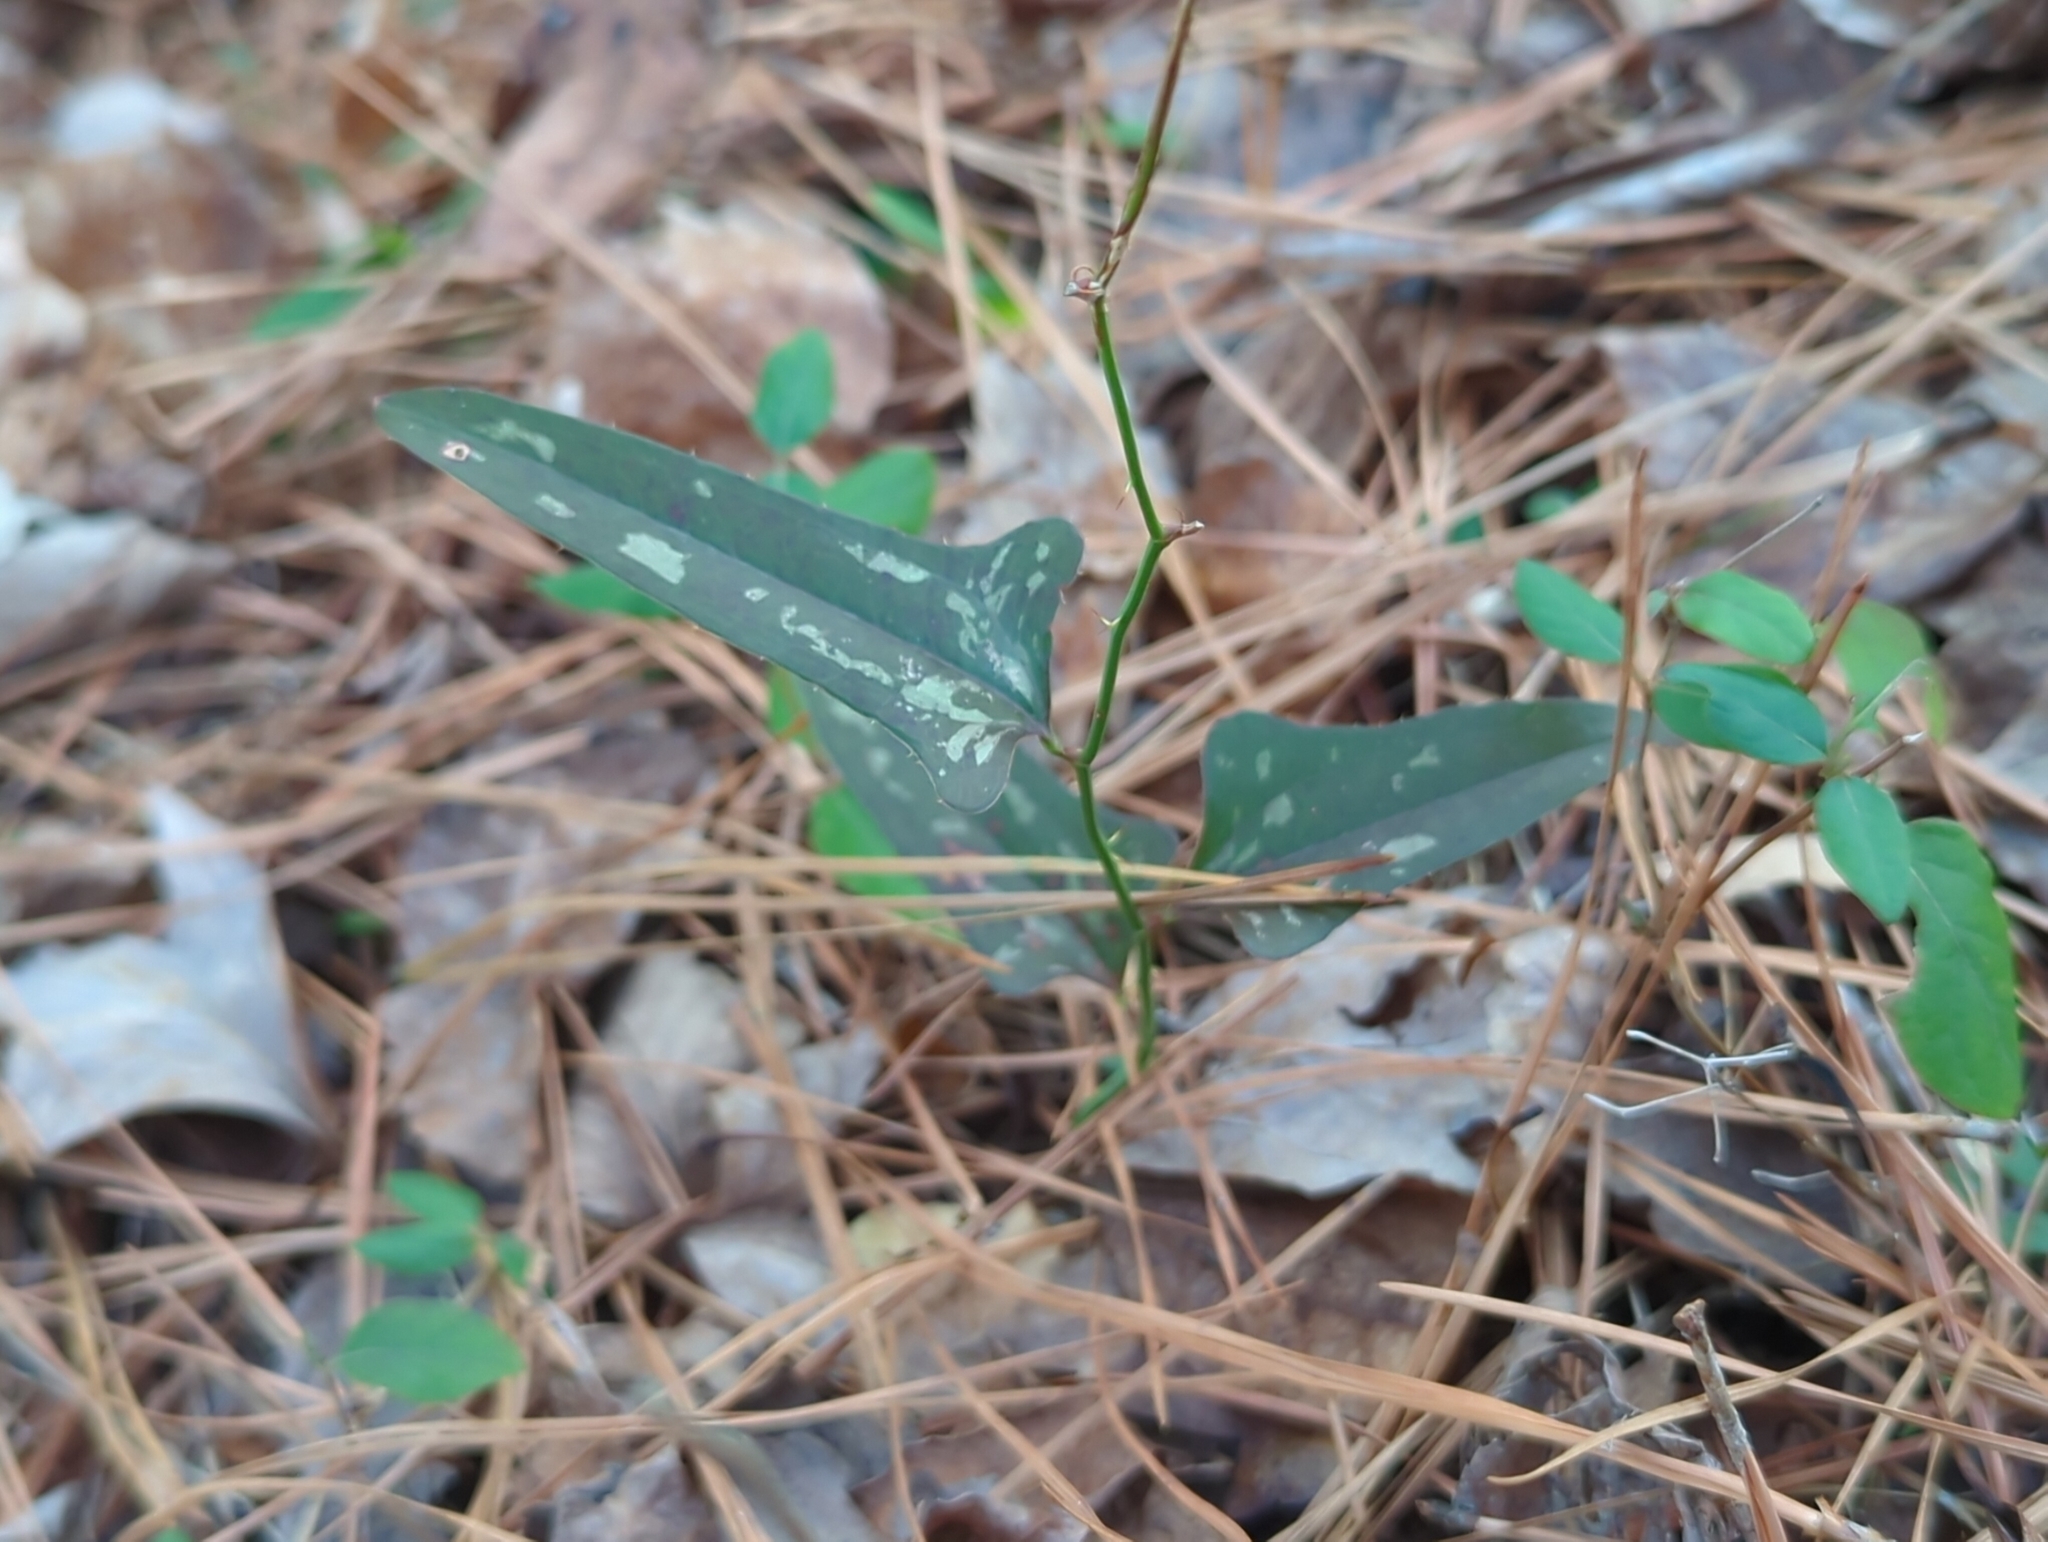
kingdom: Plantae
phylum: Tracheophyta
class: Liliopsida
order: Liliales
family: Smilacaceae
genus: Smilax
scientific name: Smilax bona-nox
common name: Catbrier
